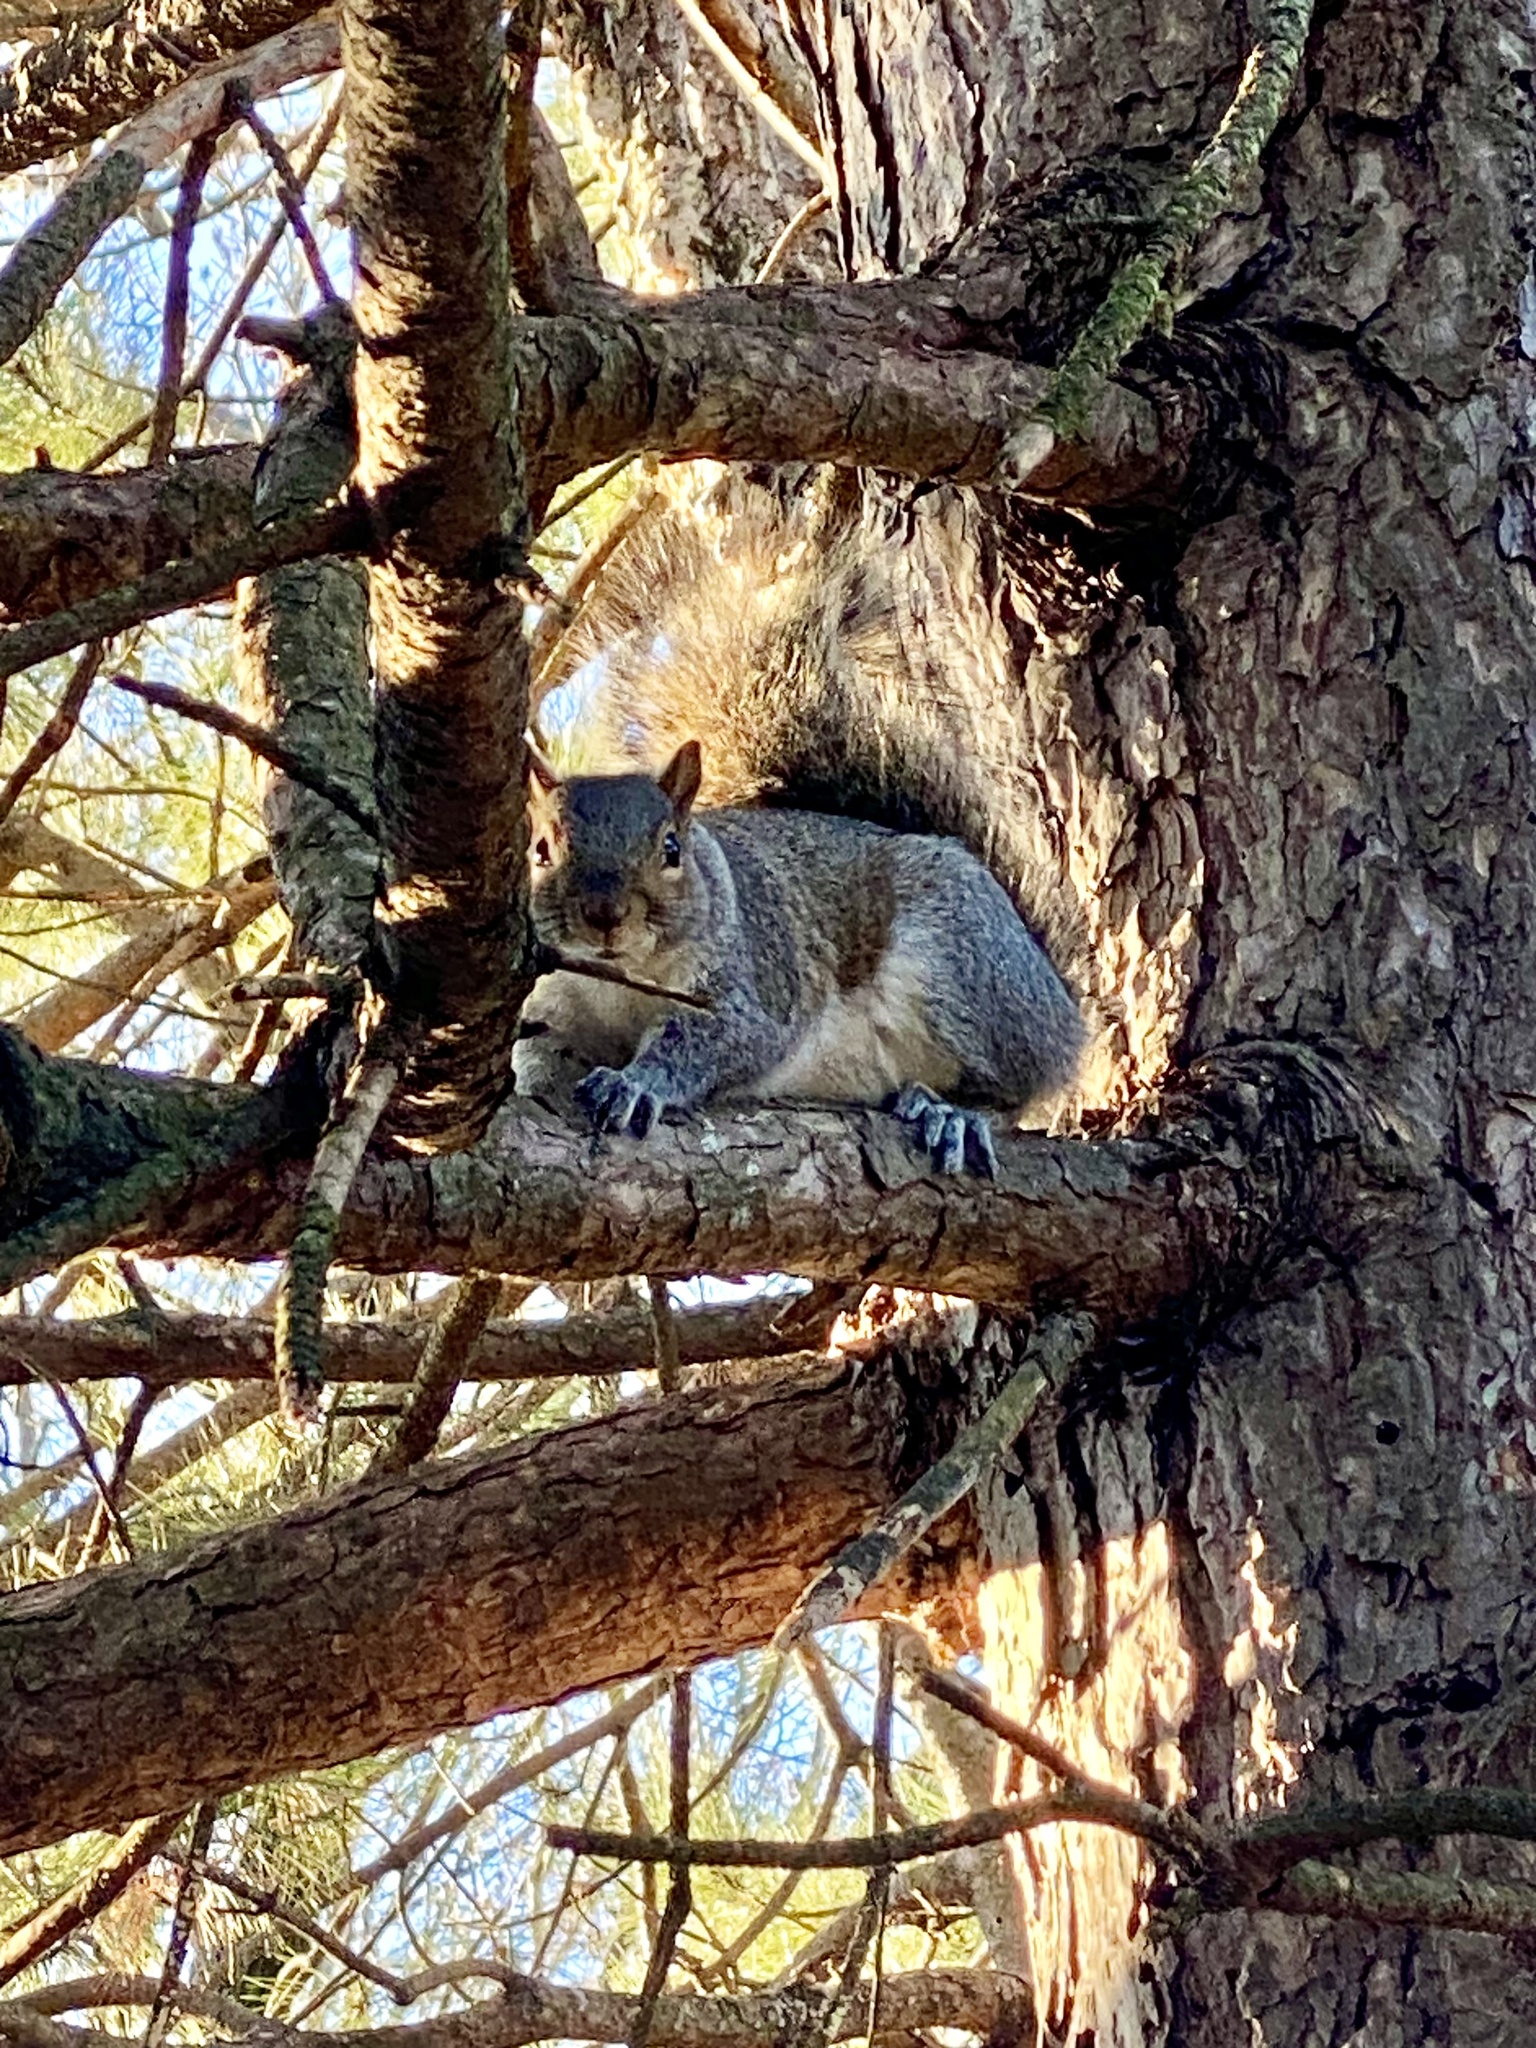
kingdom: Animalia
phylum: Chordata
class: Mammalia
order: Rodentia
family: Sciuridae
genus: Sciurus
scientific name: Sciurus carolinensis
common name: Eastern gray squirrel
